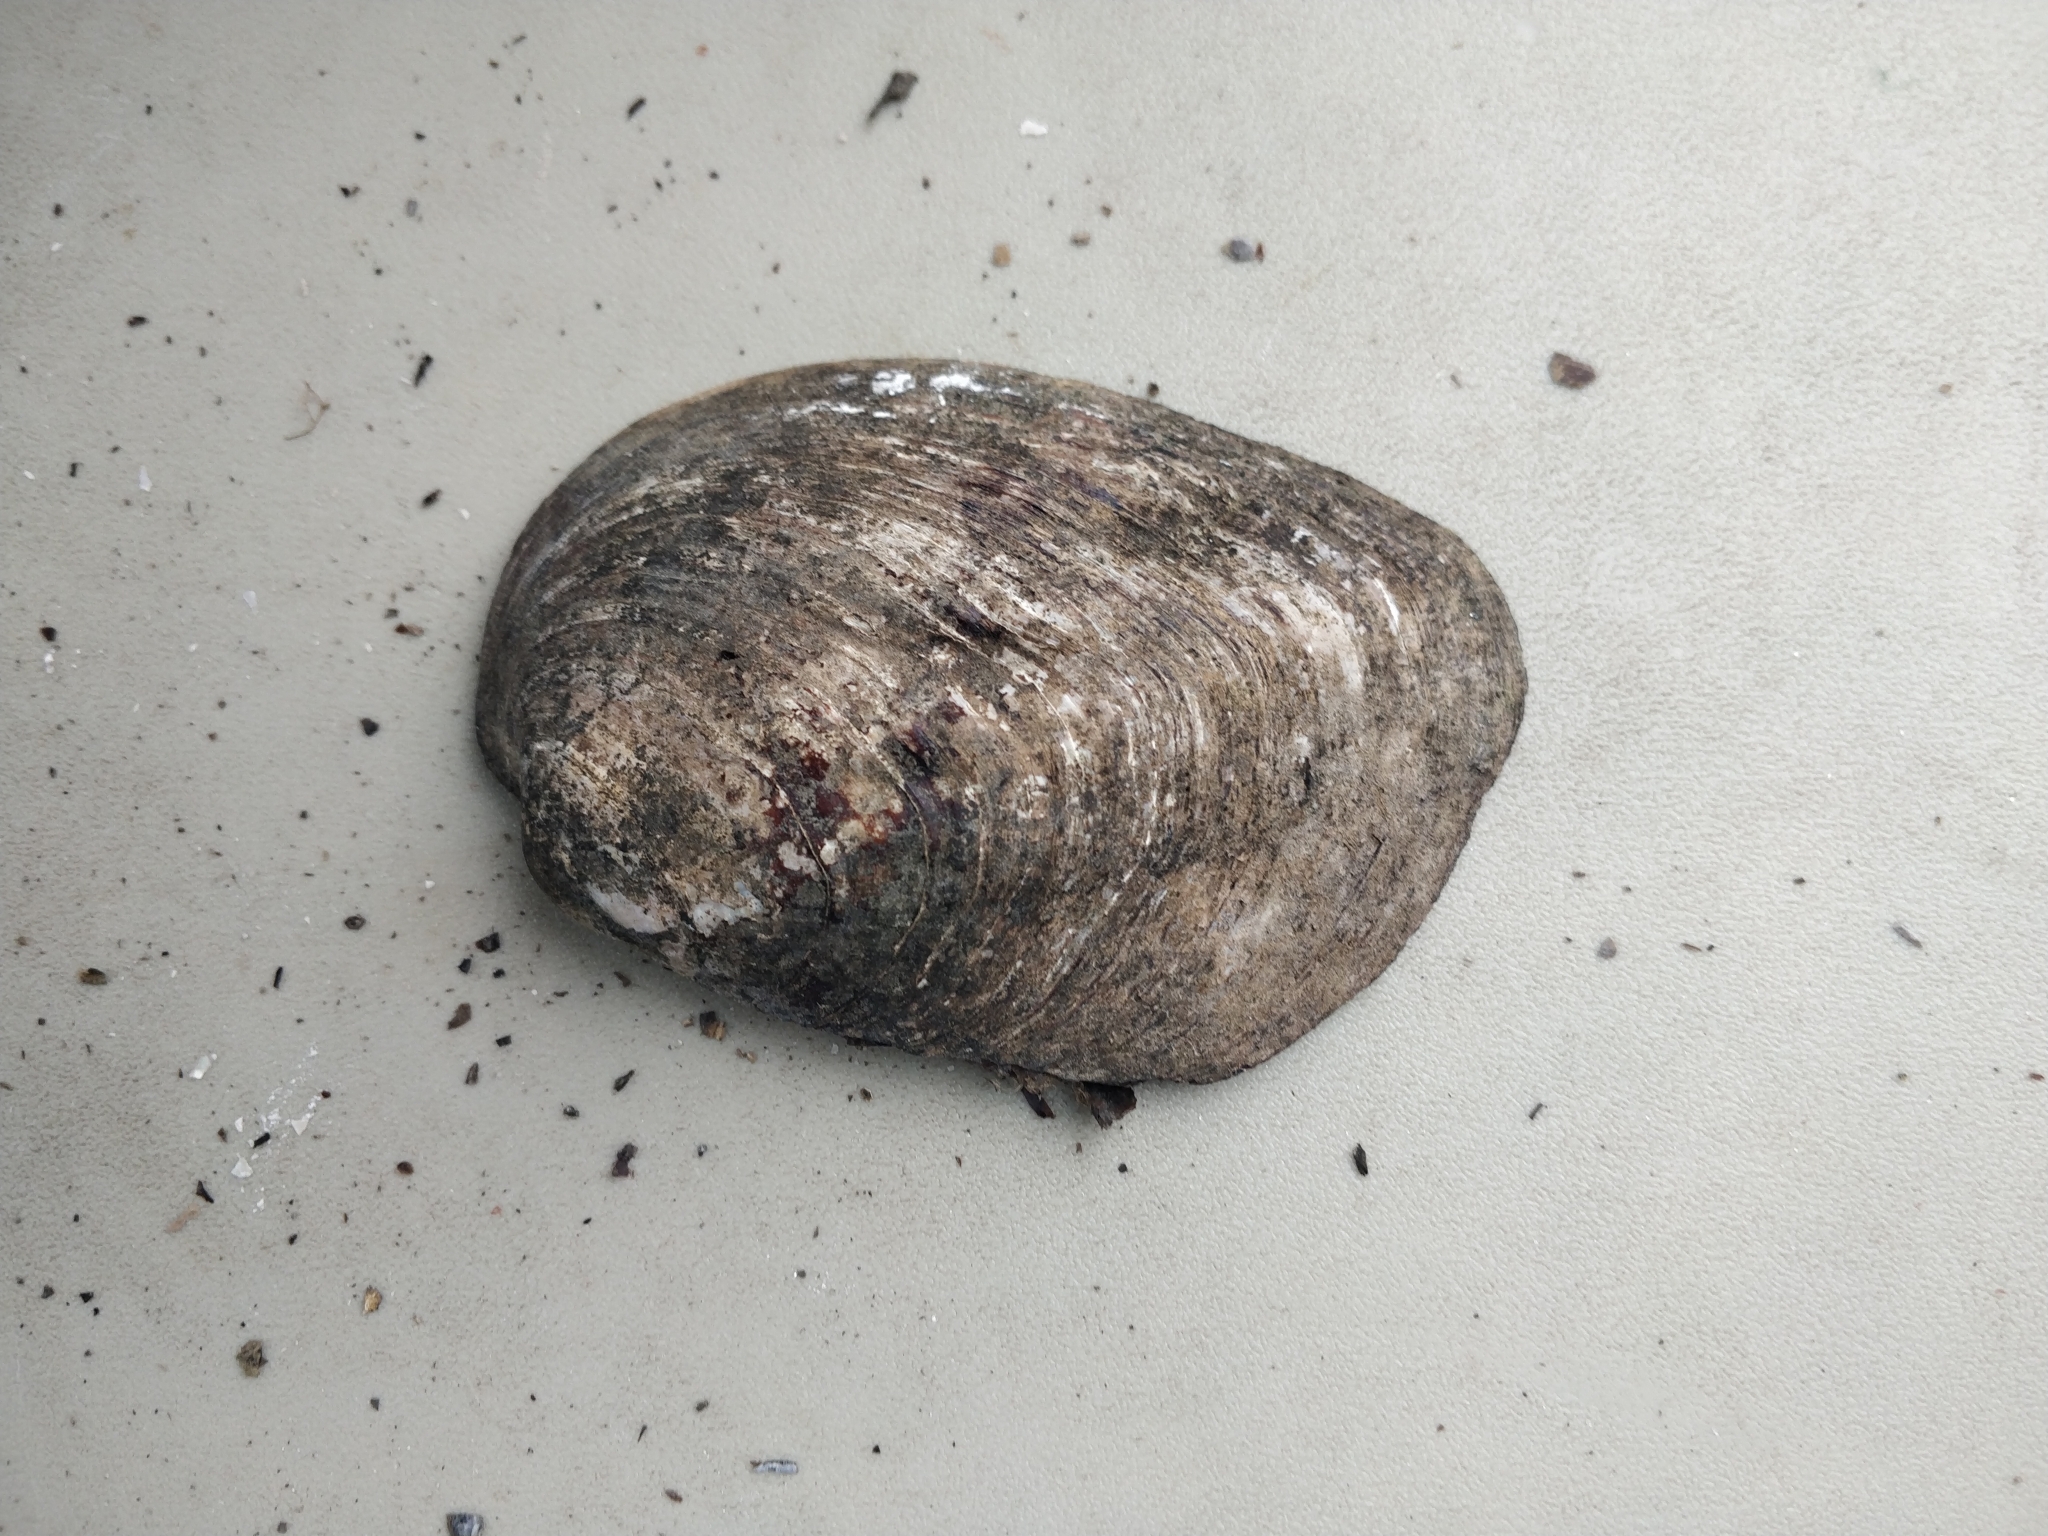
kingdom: Animalia
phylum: Mollusca
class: Bivalvia
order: Unionida
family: Unionidae
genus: Amblema
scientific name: Amblema plicata
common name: Threeridge
